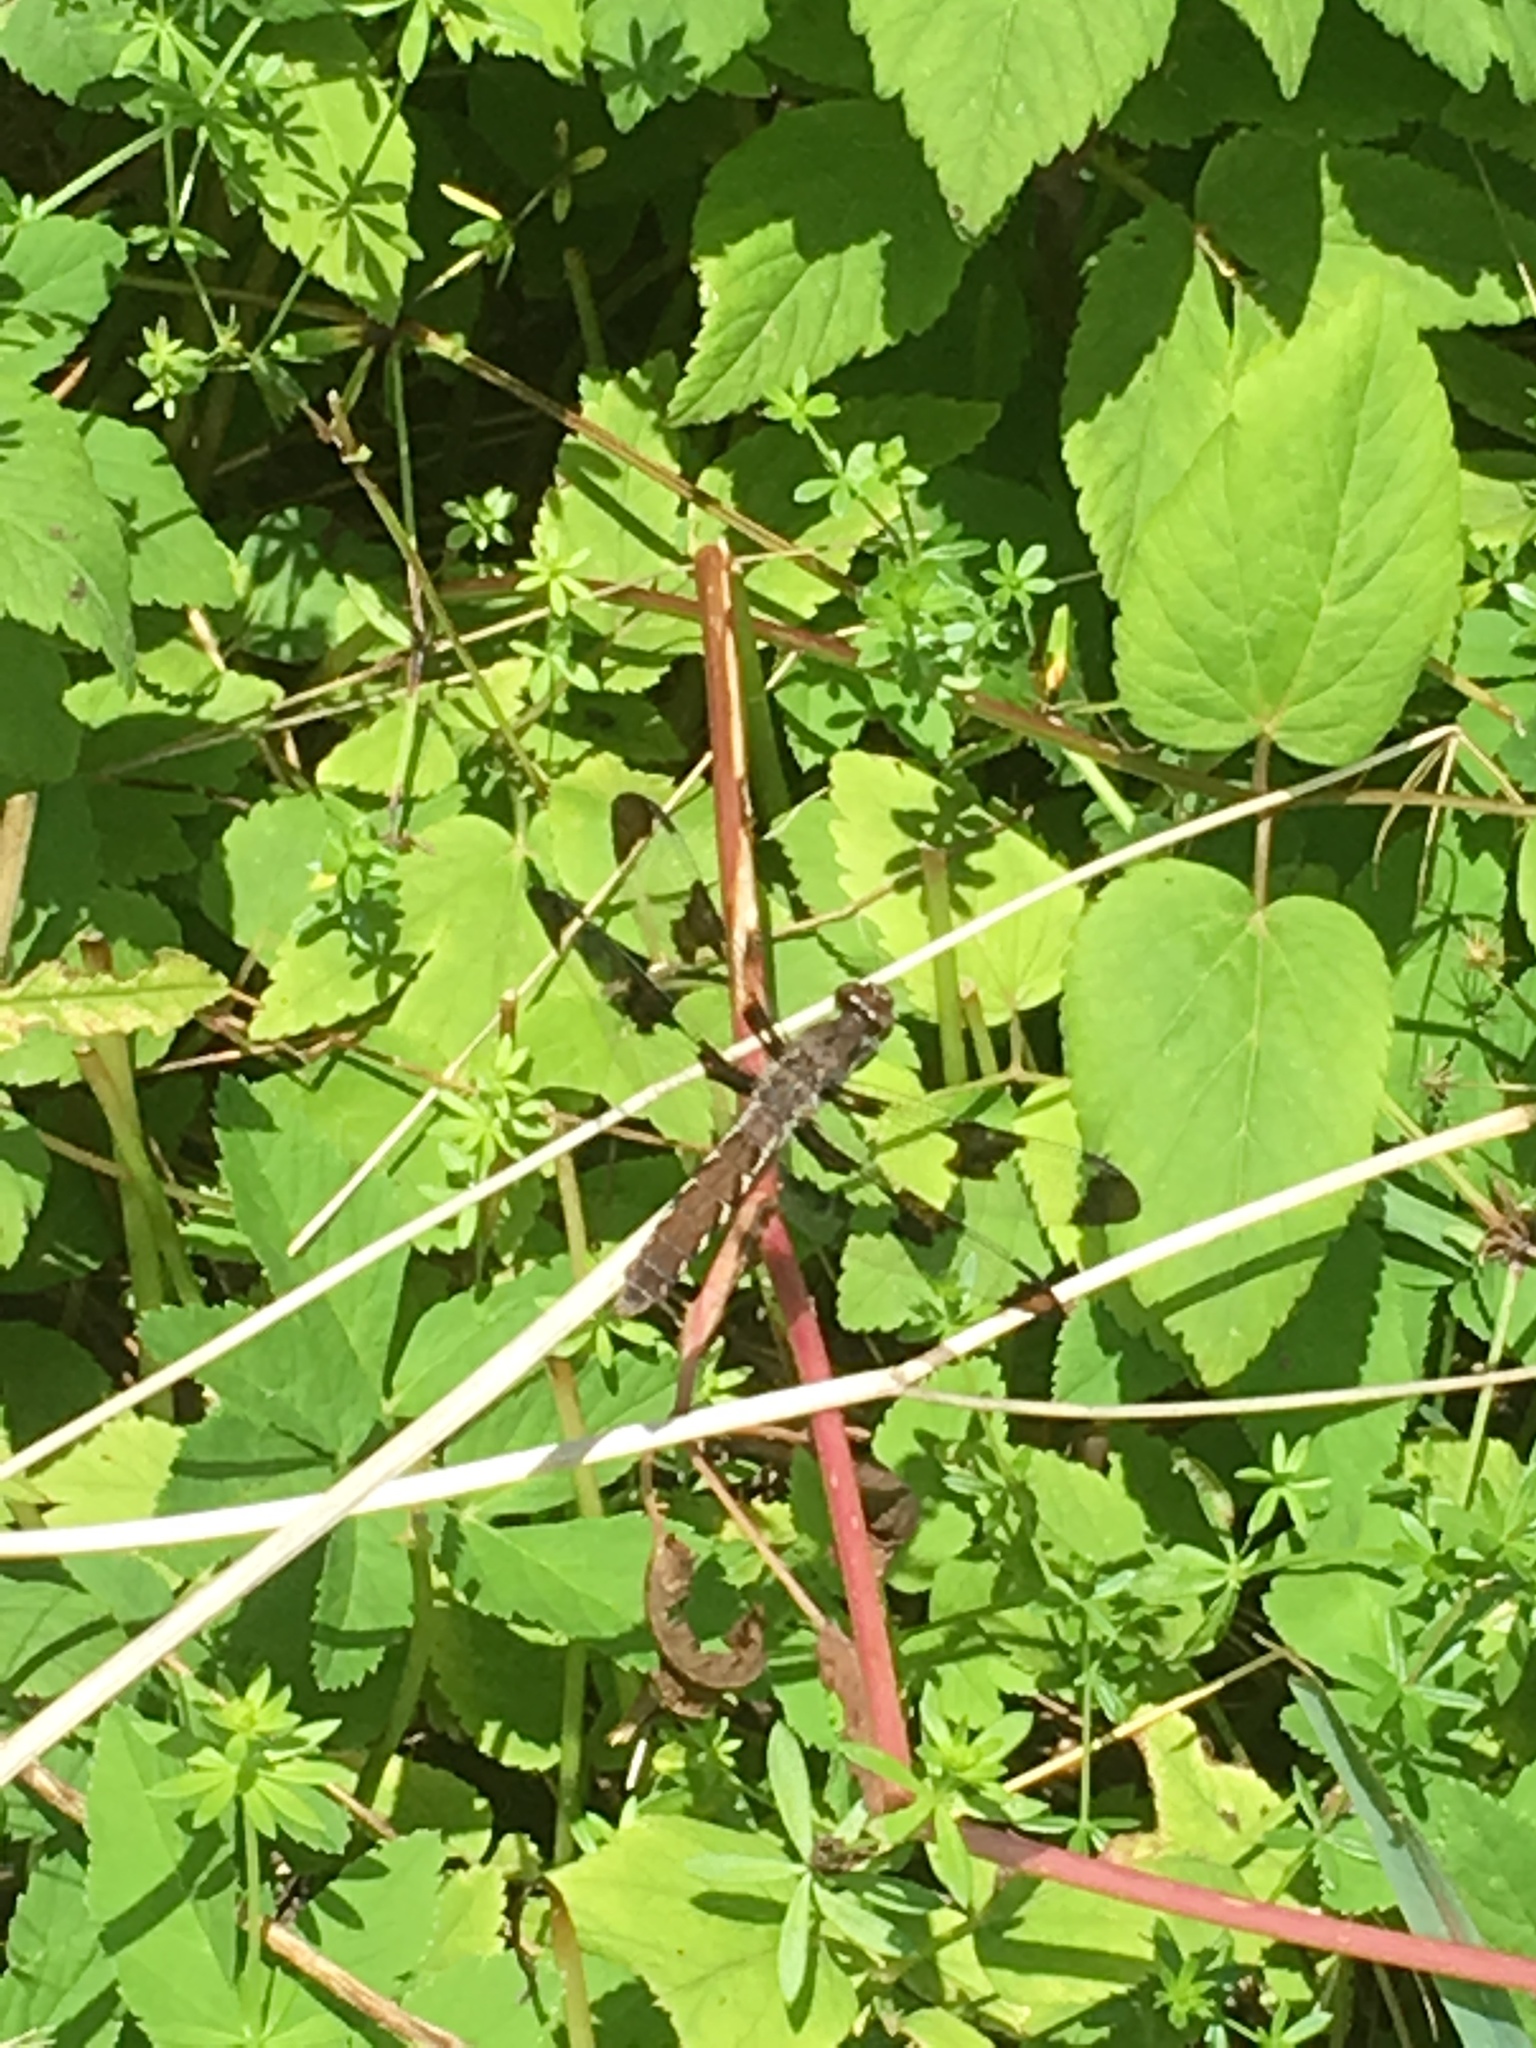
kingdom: Animalia
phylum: Arthropoda
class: Insecta
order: Odonata
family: Libellulidae
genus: Plathemis
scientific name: Plathemis lydia
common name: Common whitetail
